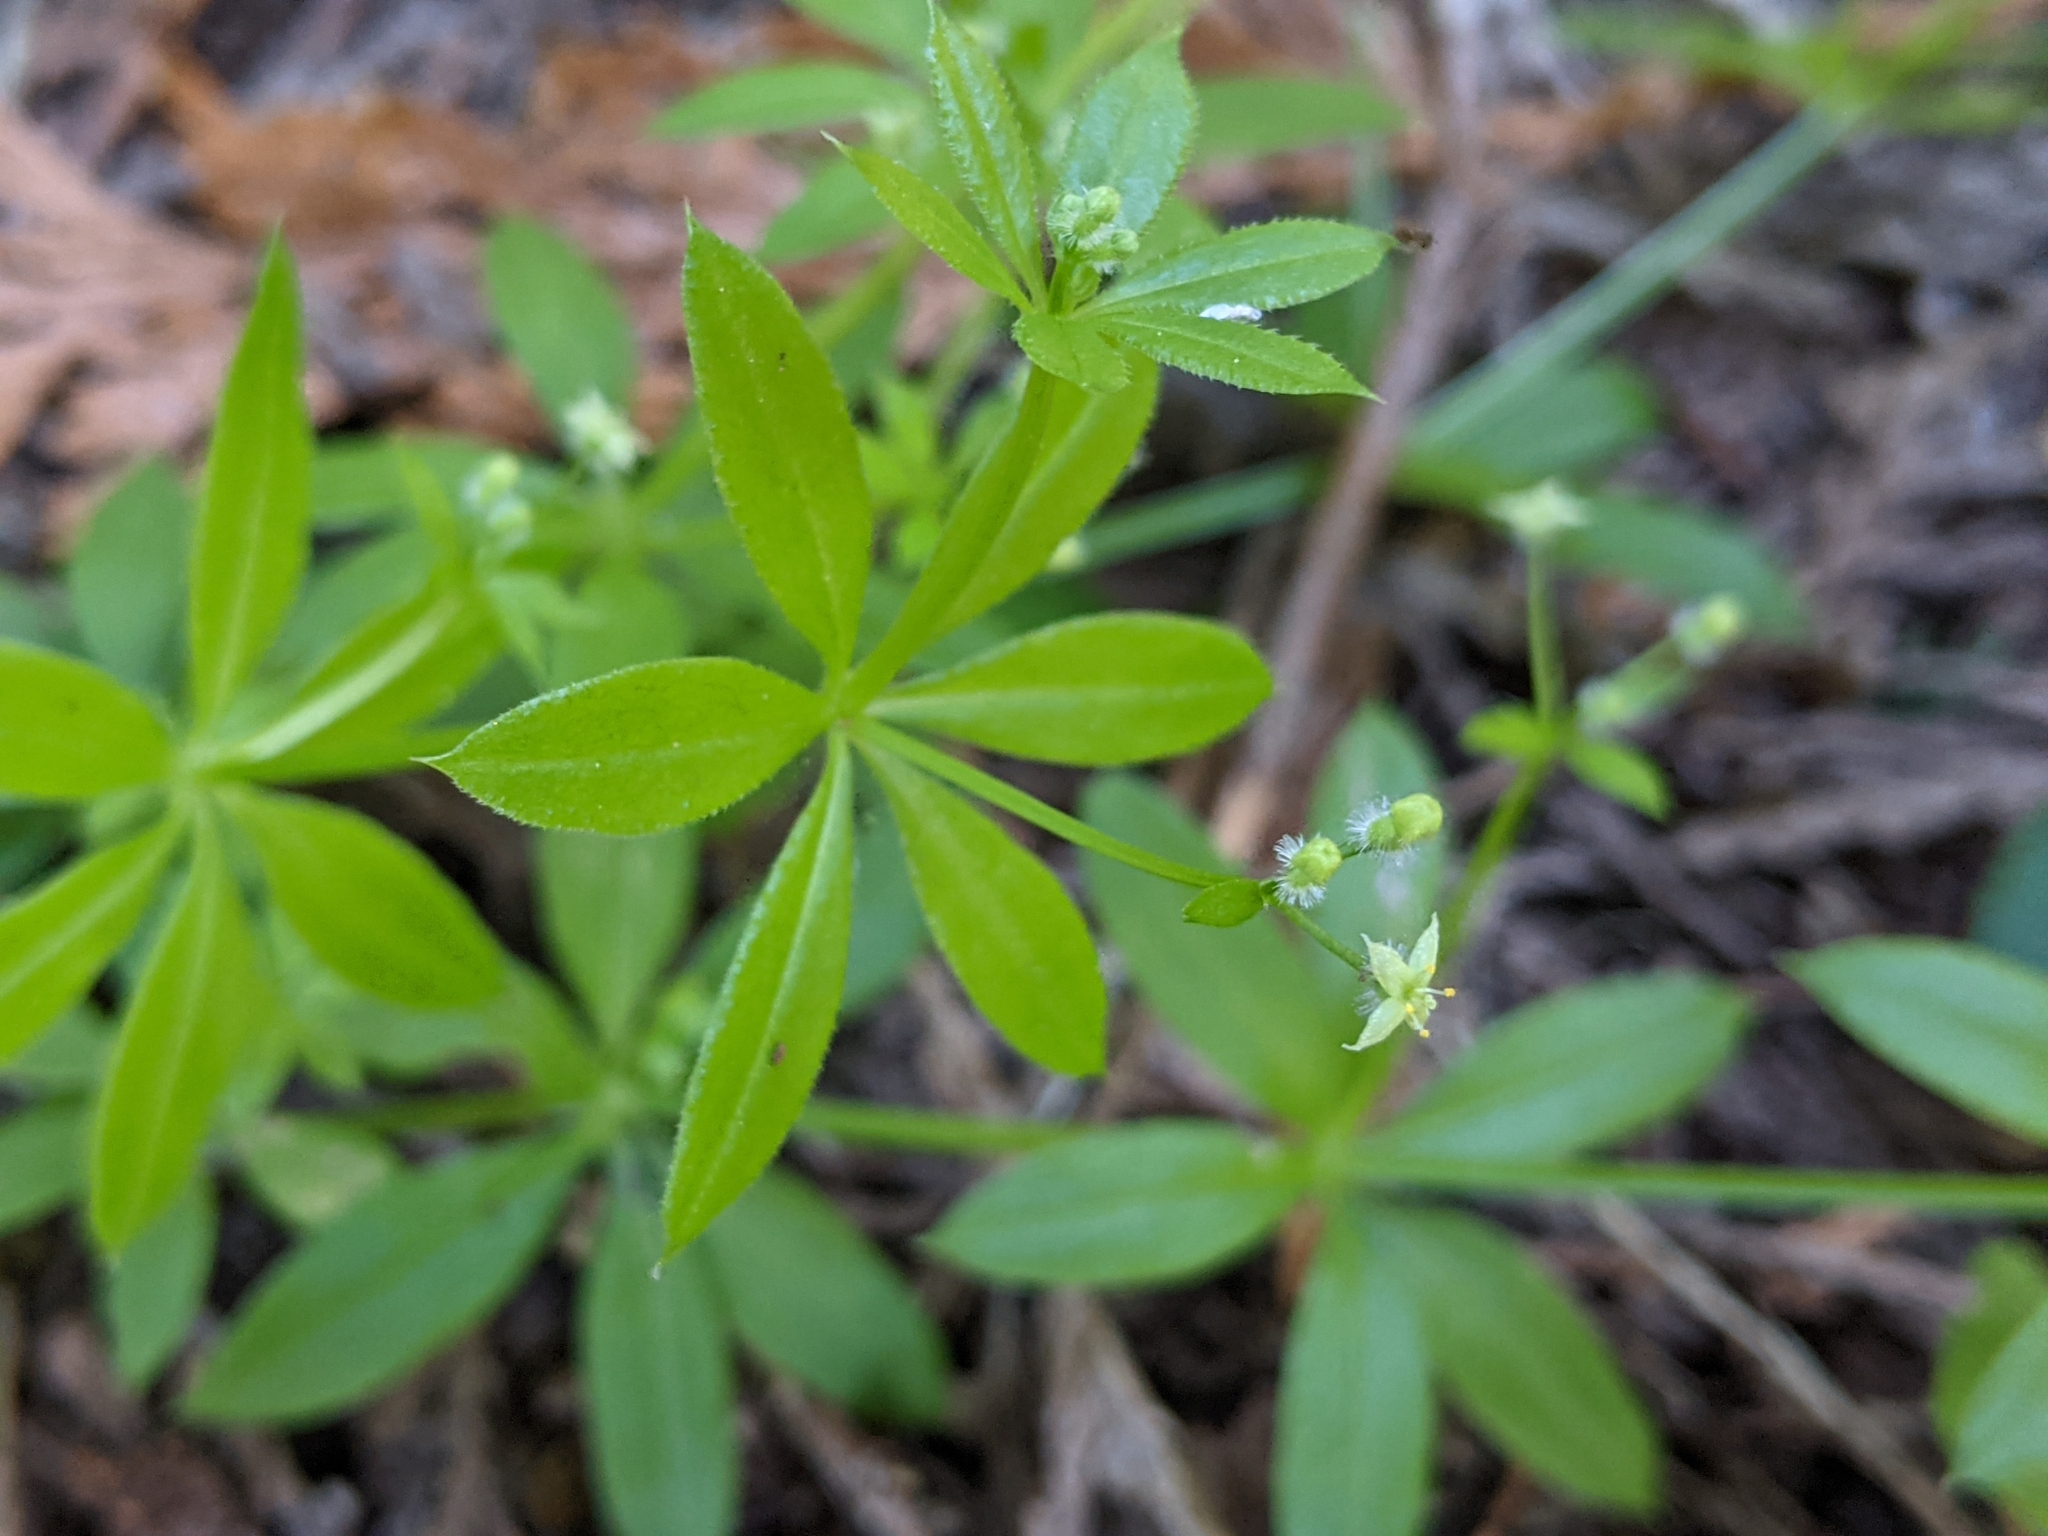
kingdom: Plantae
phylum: Tracheophyta
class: Magnoliopsida
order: Gentianales
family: Rubiaceae
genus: Galium
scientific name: Galium triflorum
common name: Fragrant bedstraw
